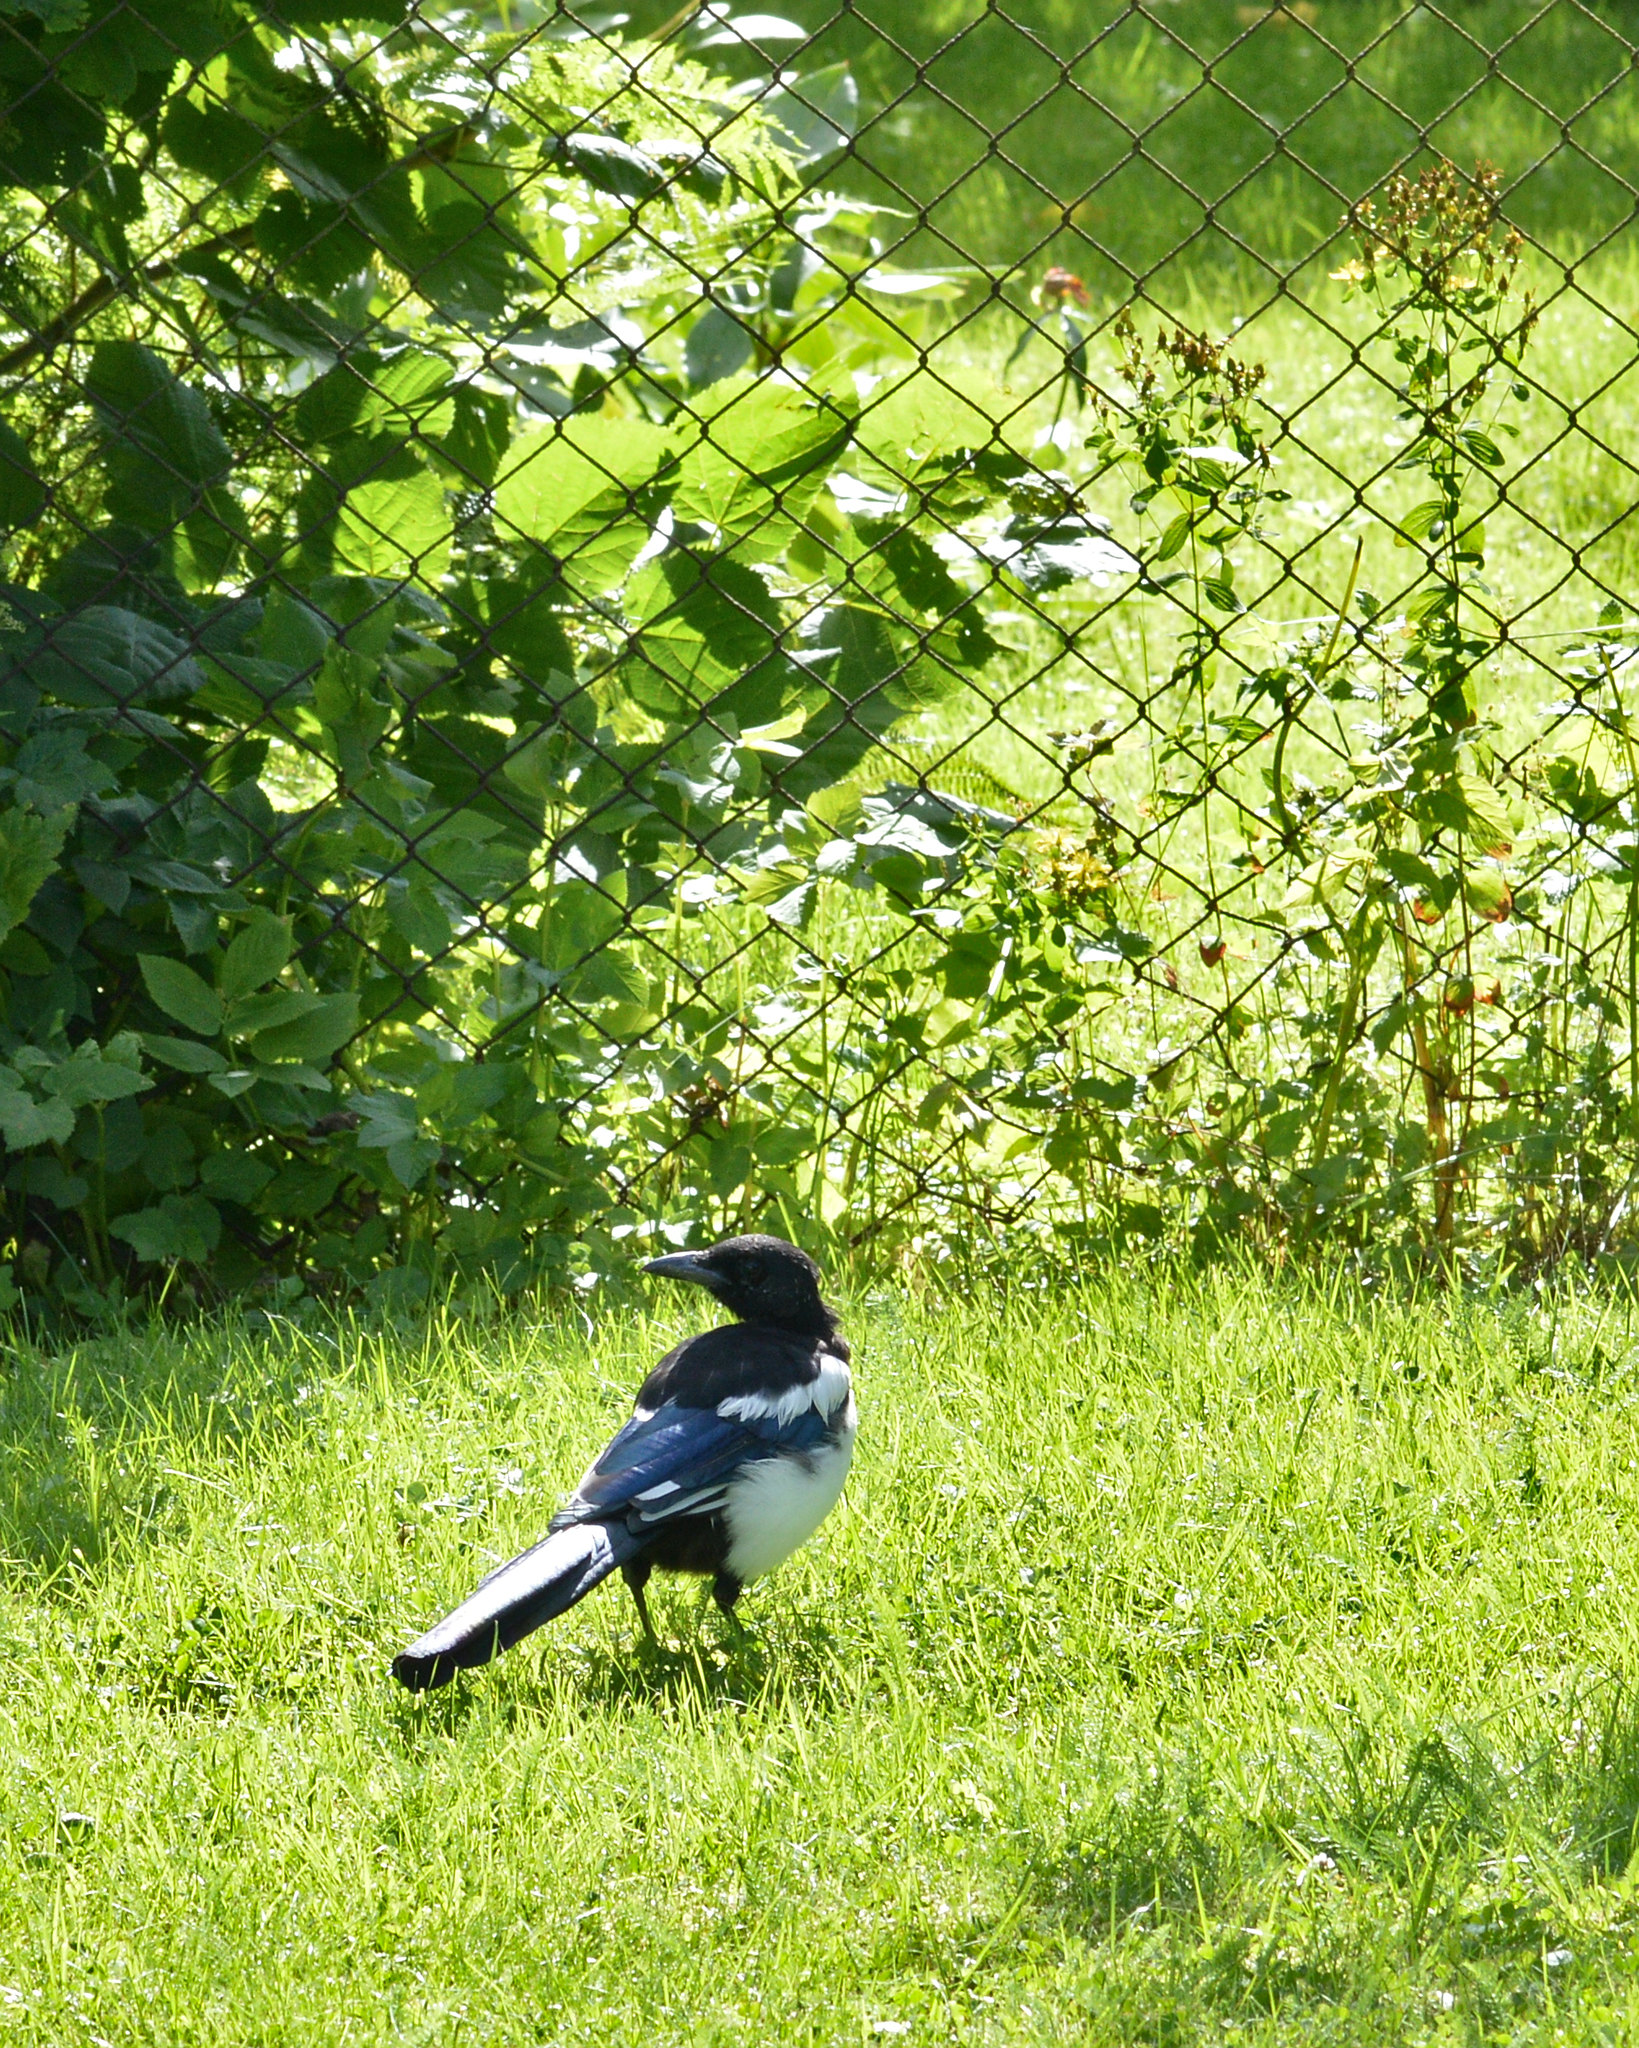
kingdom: Animalia
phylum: Chordata
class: Aves
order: Passeriformes
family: Corvidae
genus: Pica
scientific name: Pica pica
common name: Eurasian magpie
